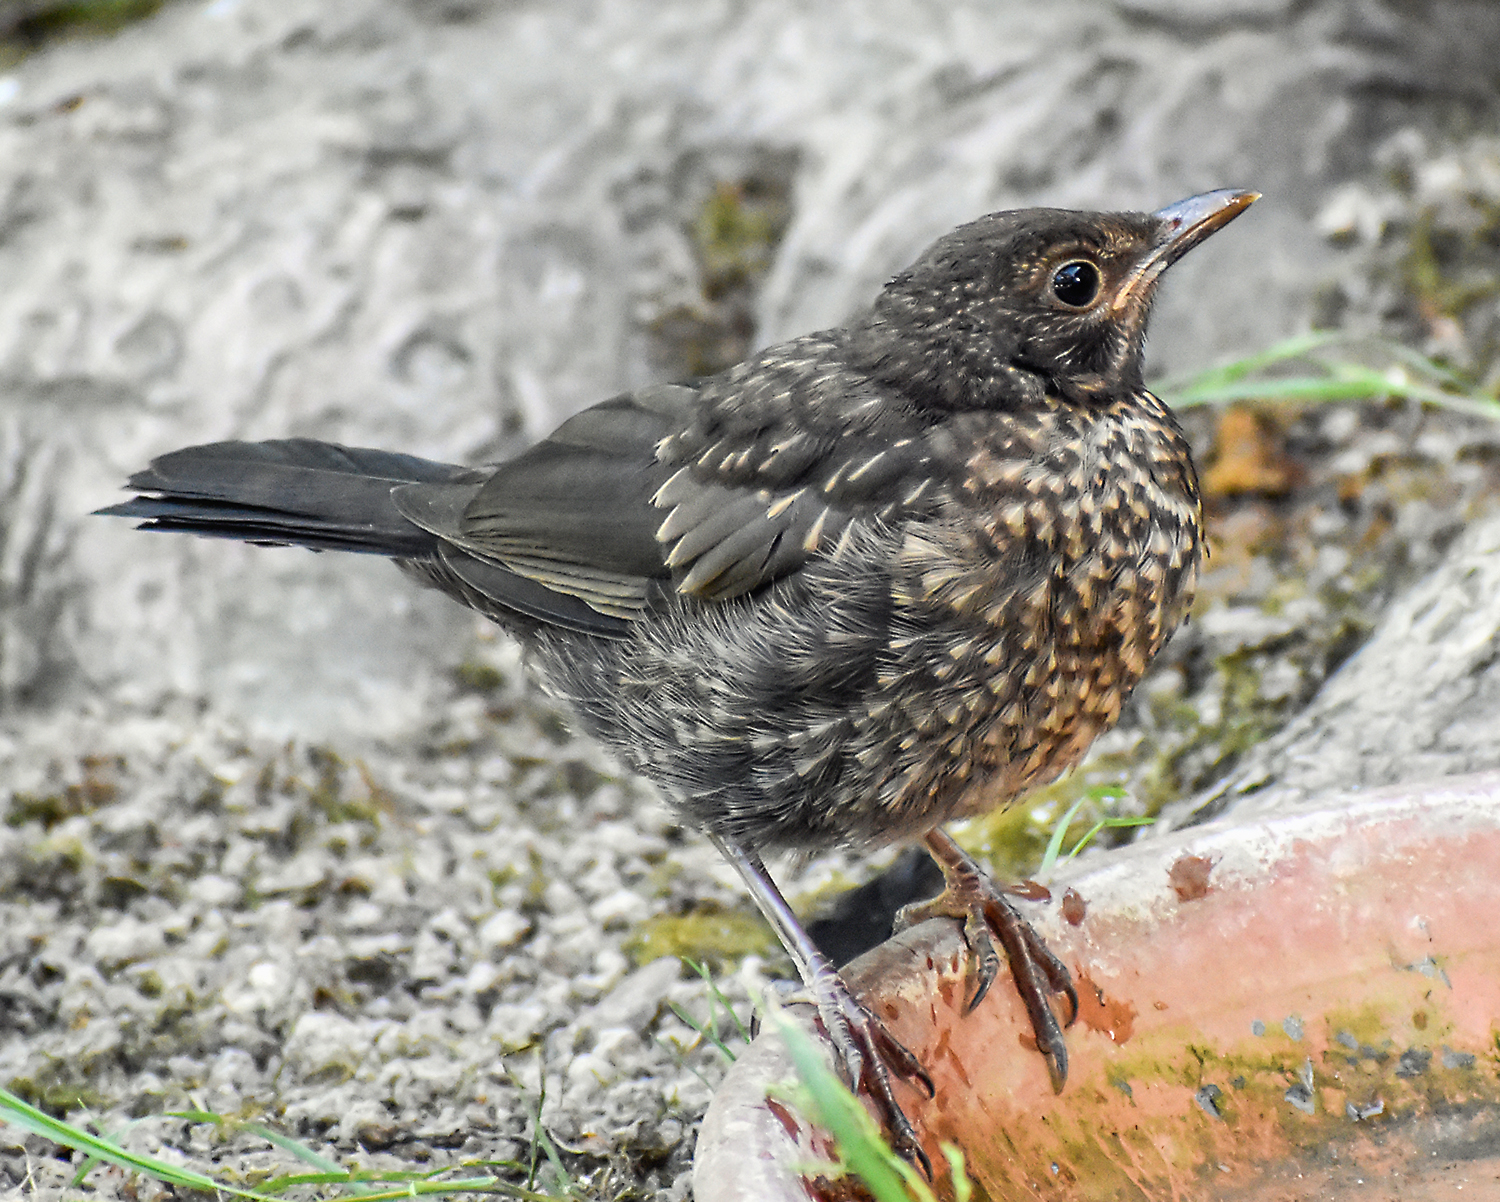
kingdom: Animalia
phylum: Chordata
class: Aves
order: Passeriformes
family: Turdidae
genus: Turdus
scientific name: Turdus merula
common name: Common blackbird
